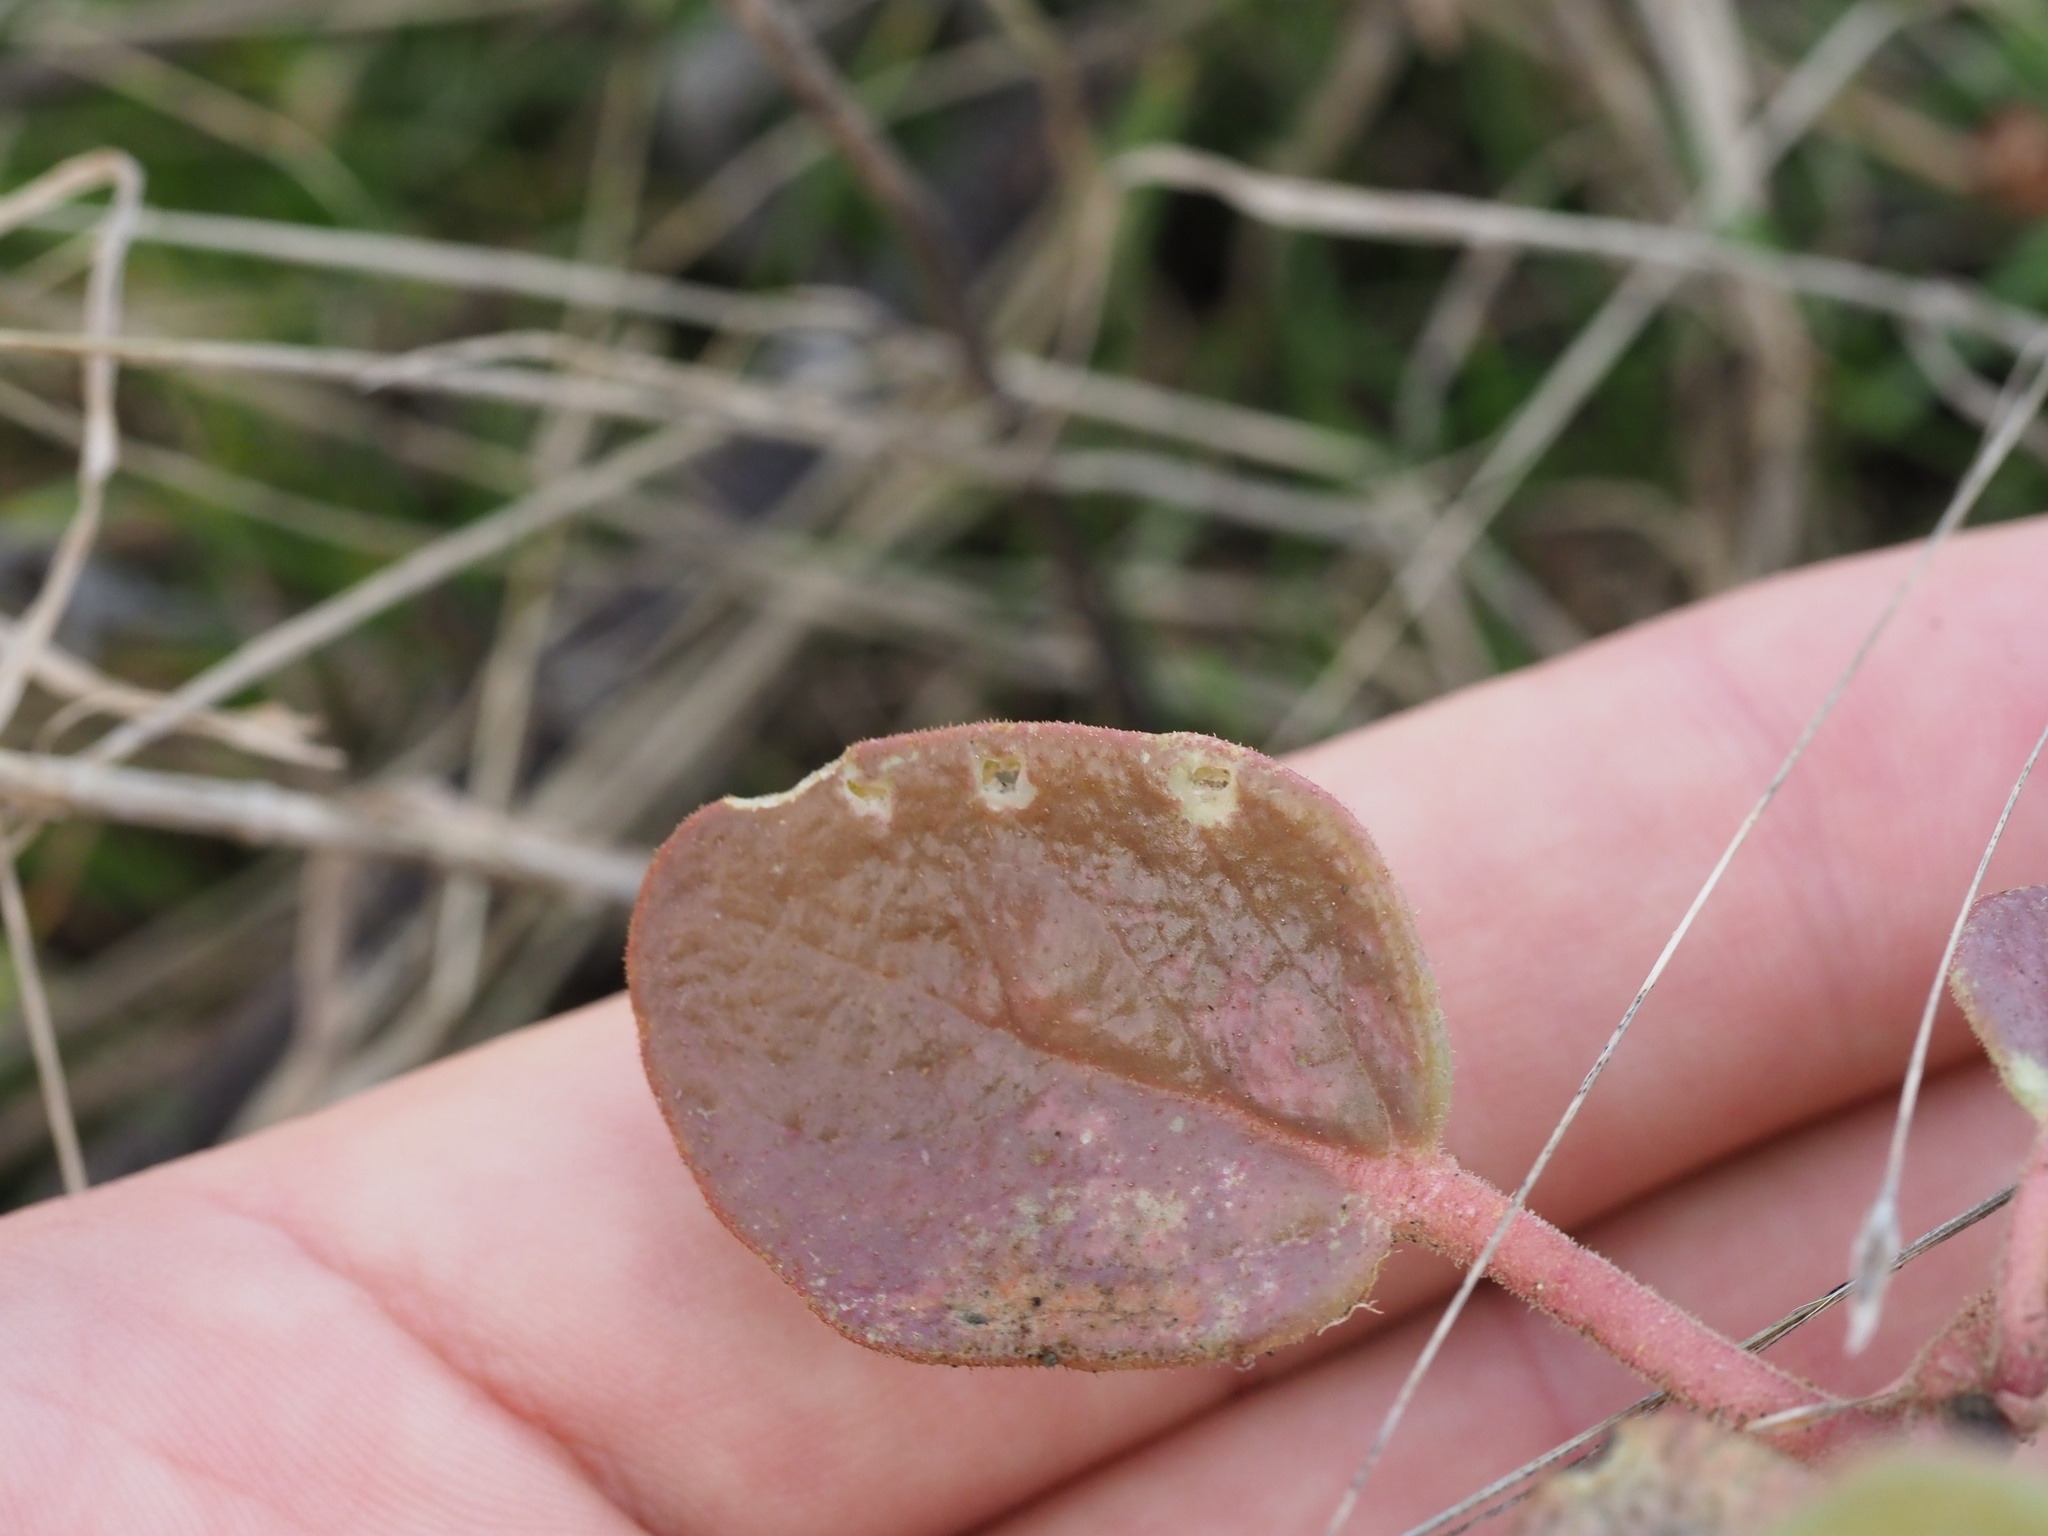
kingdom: Plantae
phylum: Tracheophyta
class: Magnoliopsida
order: Caryophyllales
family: Nyctaginaceae
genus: Abronia
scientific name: Abronia latifolia
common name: Yellow sand-verbena
